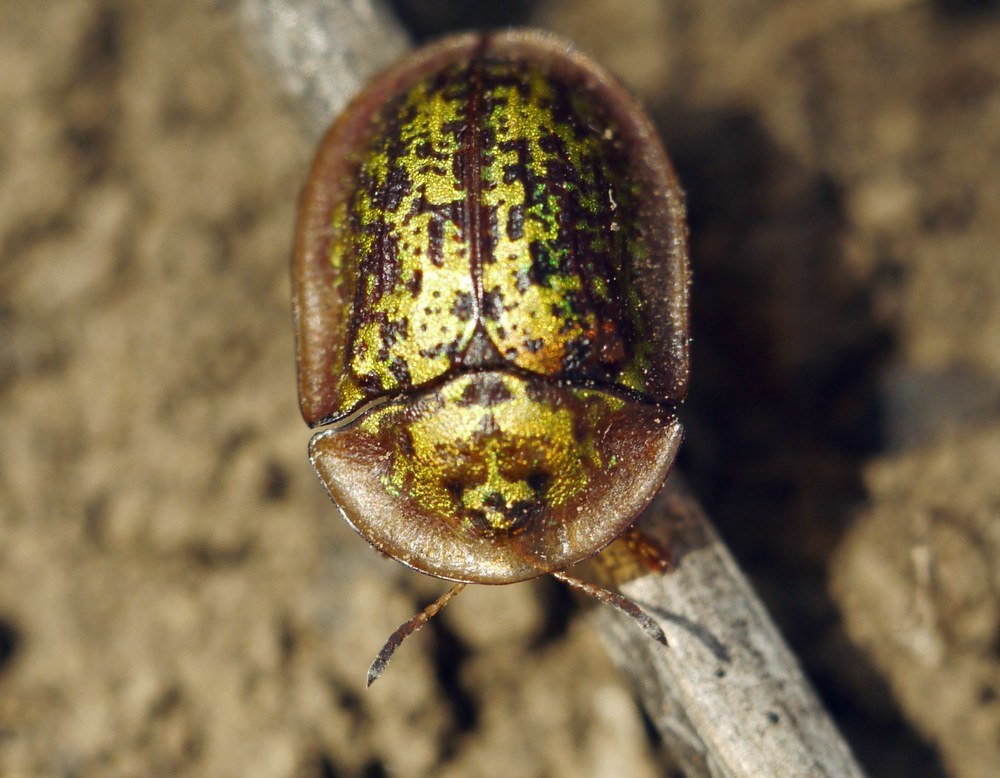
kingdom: Animalia
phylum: Arthropoda
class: Insecta
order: Coleoptera
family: Chrysomelidae
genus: Cassida
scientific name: Cassida canaliculata
